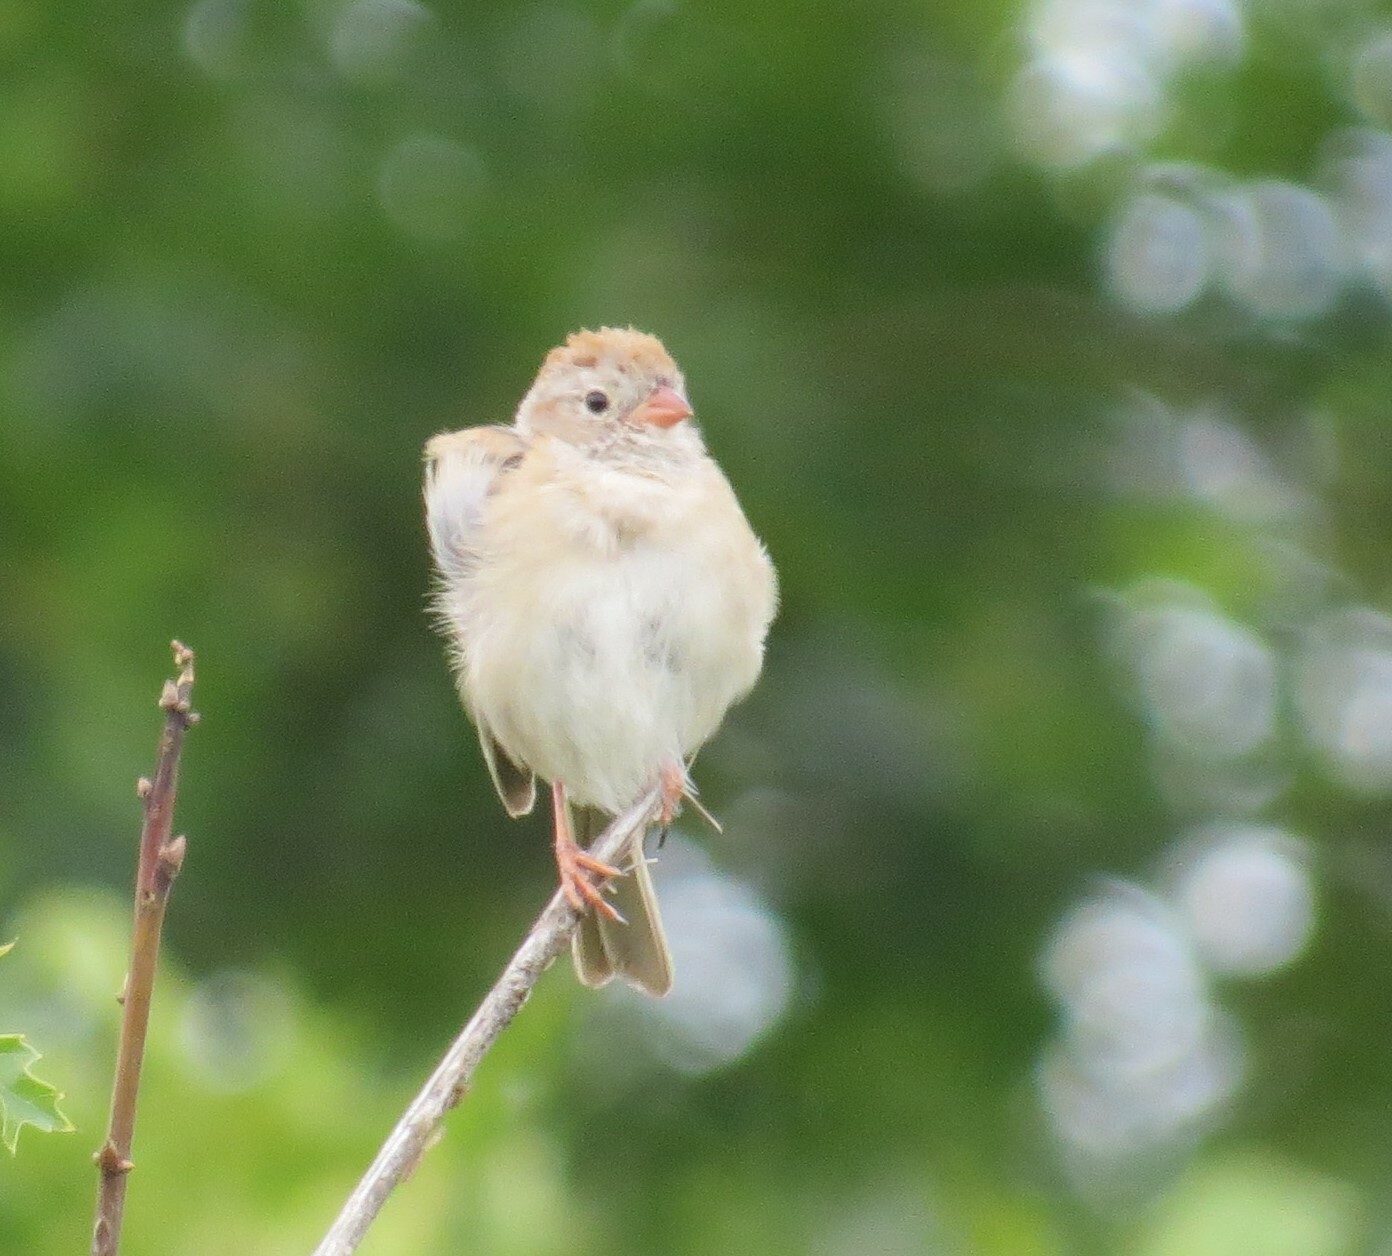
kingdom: Animalia
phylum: Chordata
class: Aves
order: Passeriformes
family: Passerellidae
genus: Spizella
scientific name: Spizella pusilla
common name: Field sparrow
